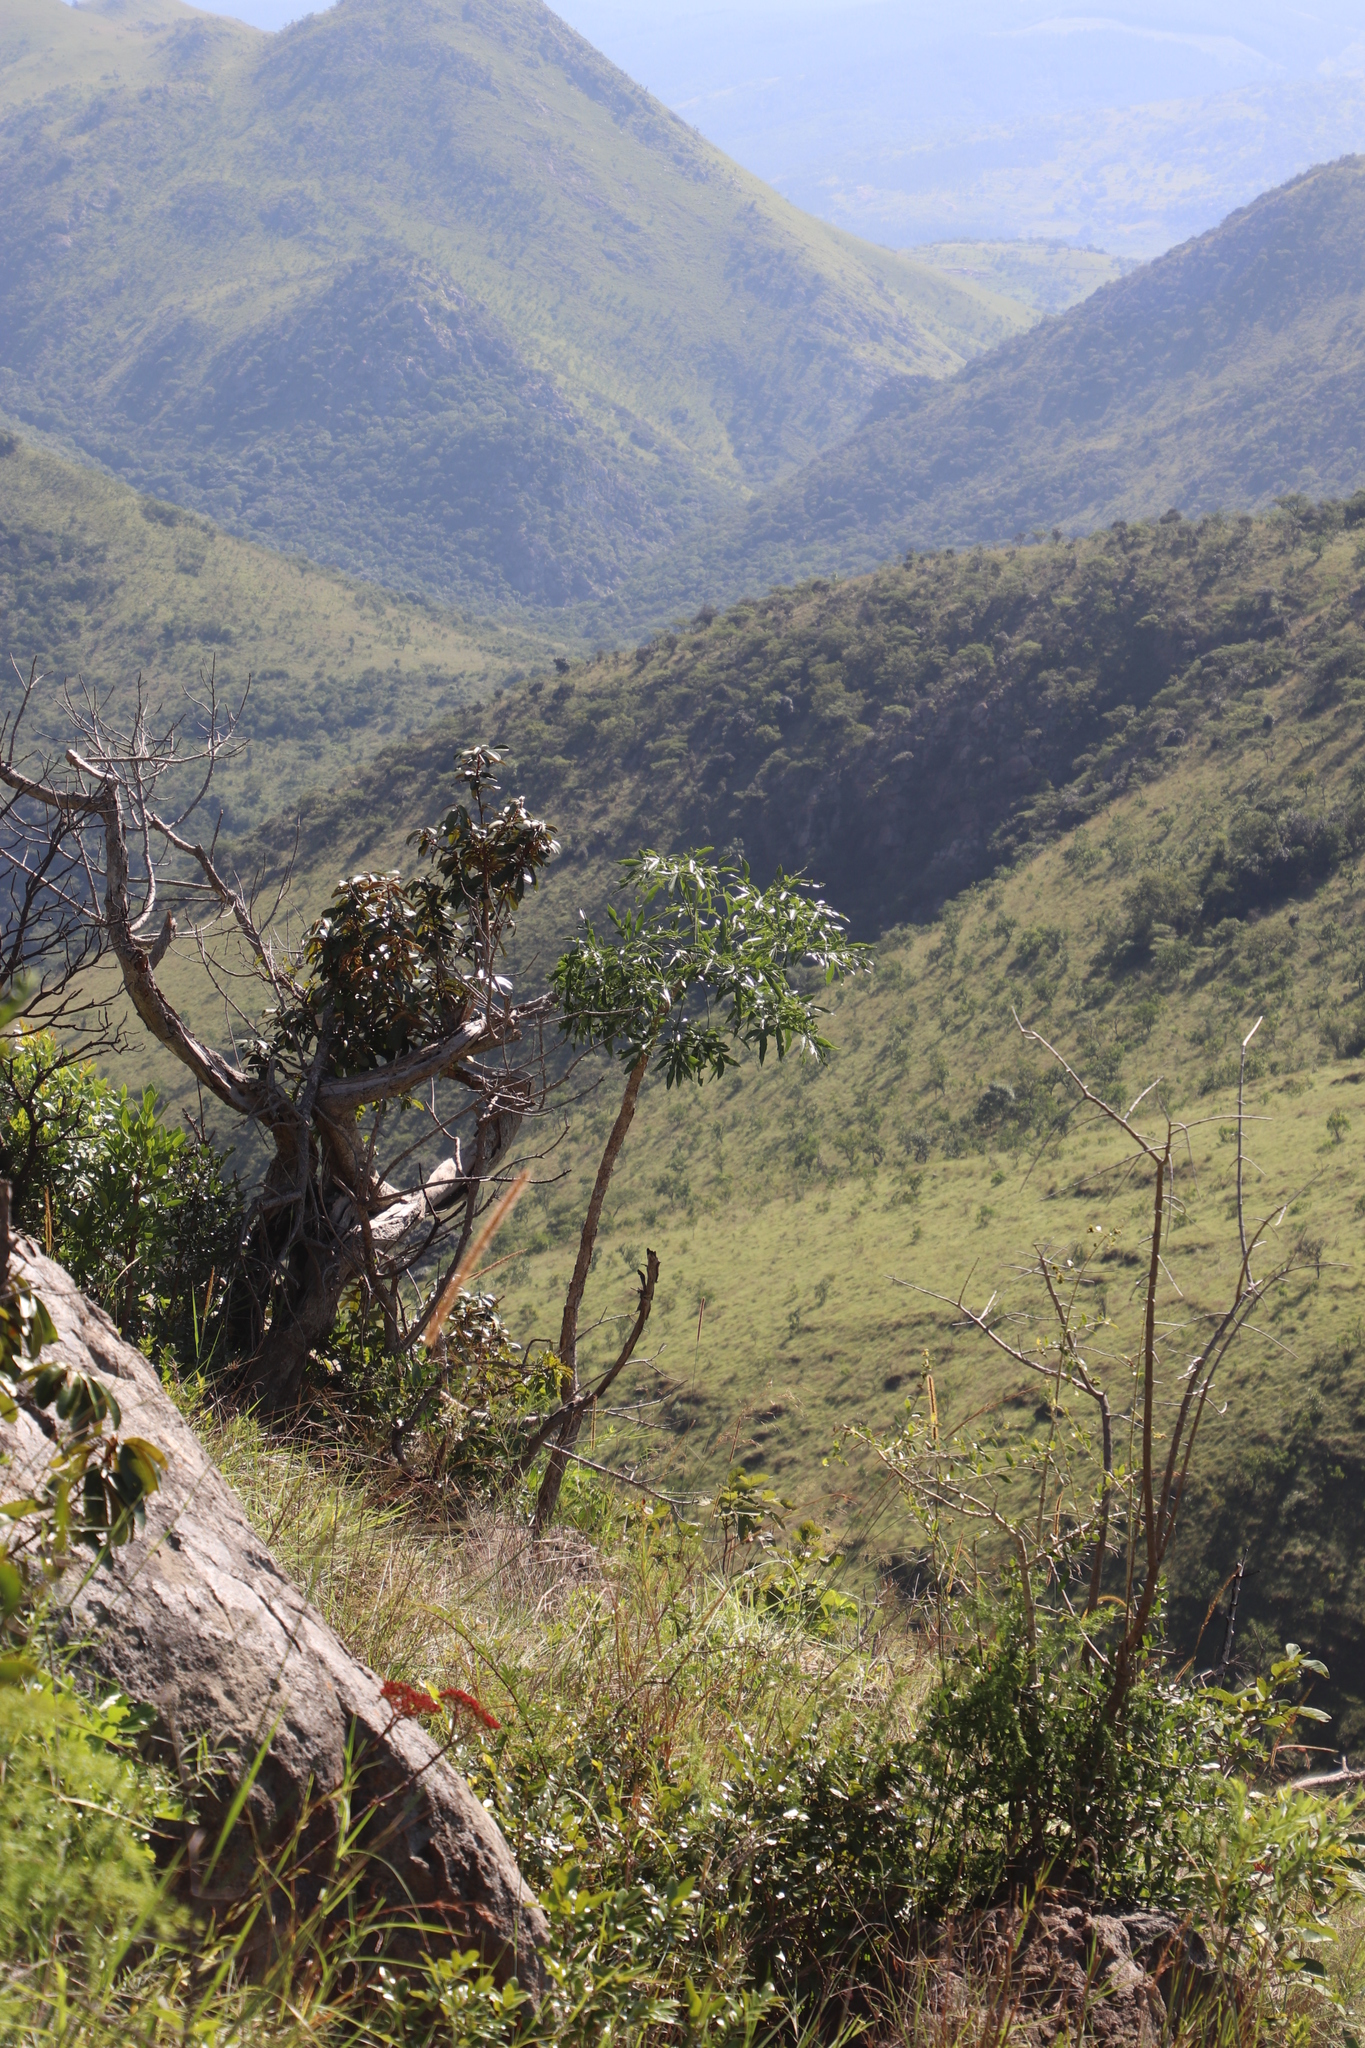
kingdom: Plantae
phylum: Tracheophyta
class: Magnoliopsida
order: Apiales
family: Araliaceae
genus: Cussonia
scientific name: Cussonia spicata
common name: Common cabbagetree
